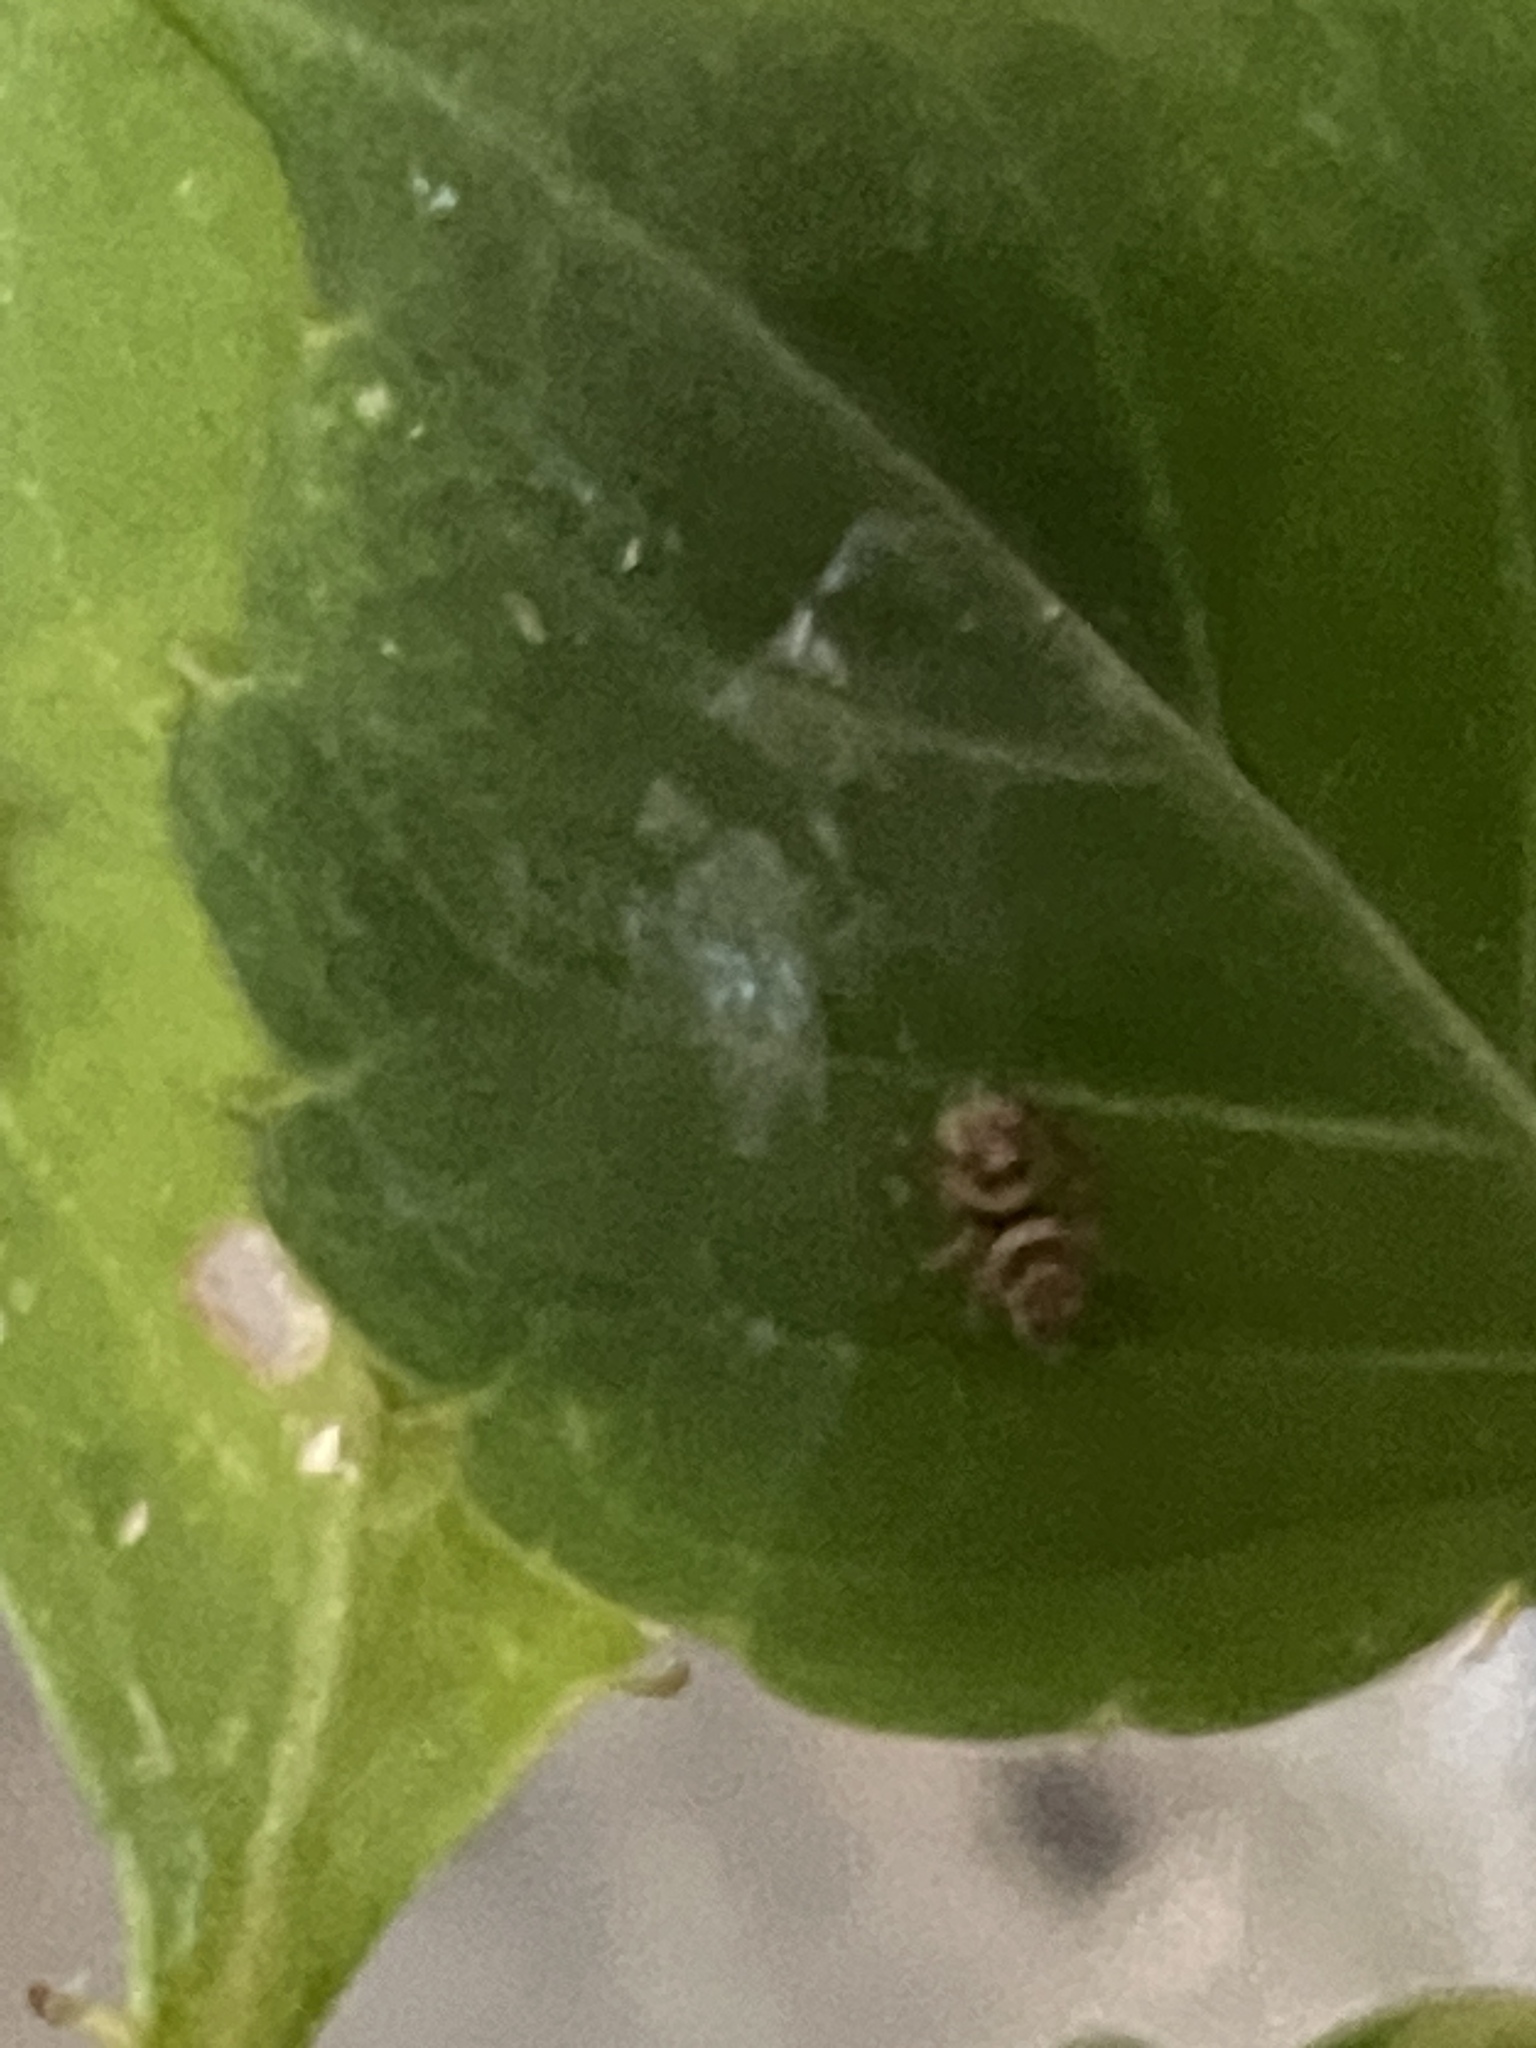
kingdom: Animalia
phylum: Arthropoda
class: Arachnida
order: Araneae
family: Salticidae
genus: Maratus
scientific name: Maratus griseus
